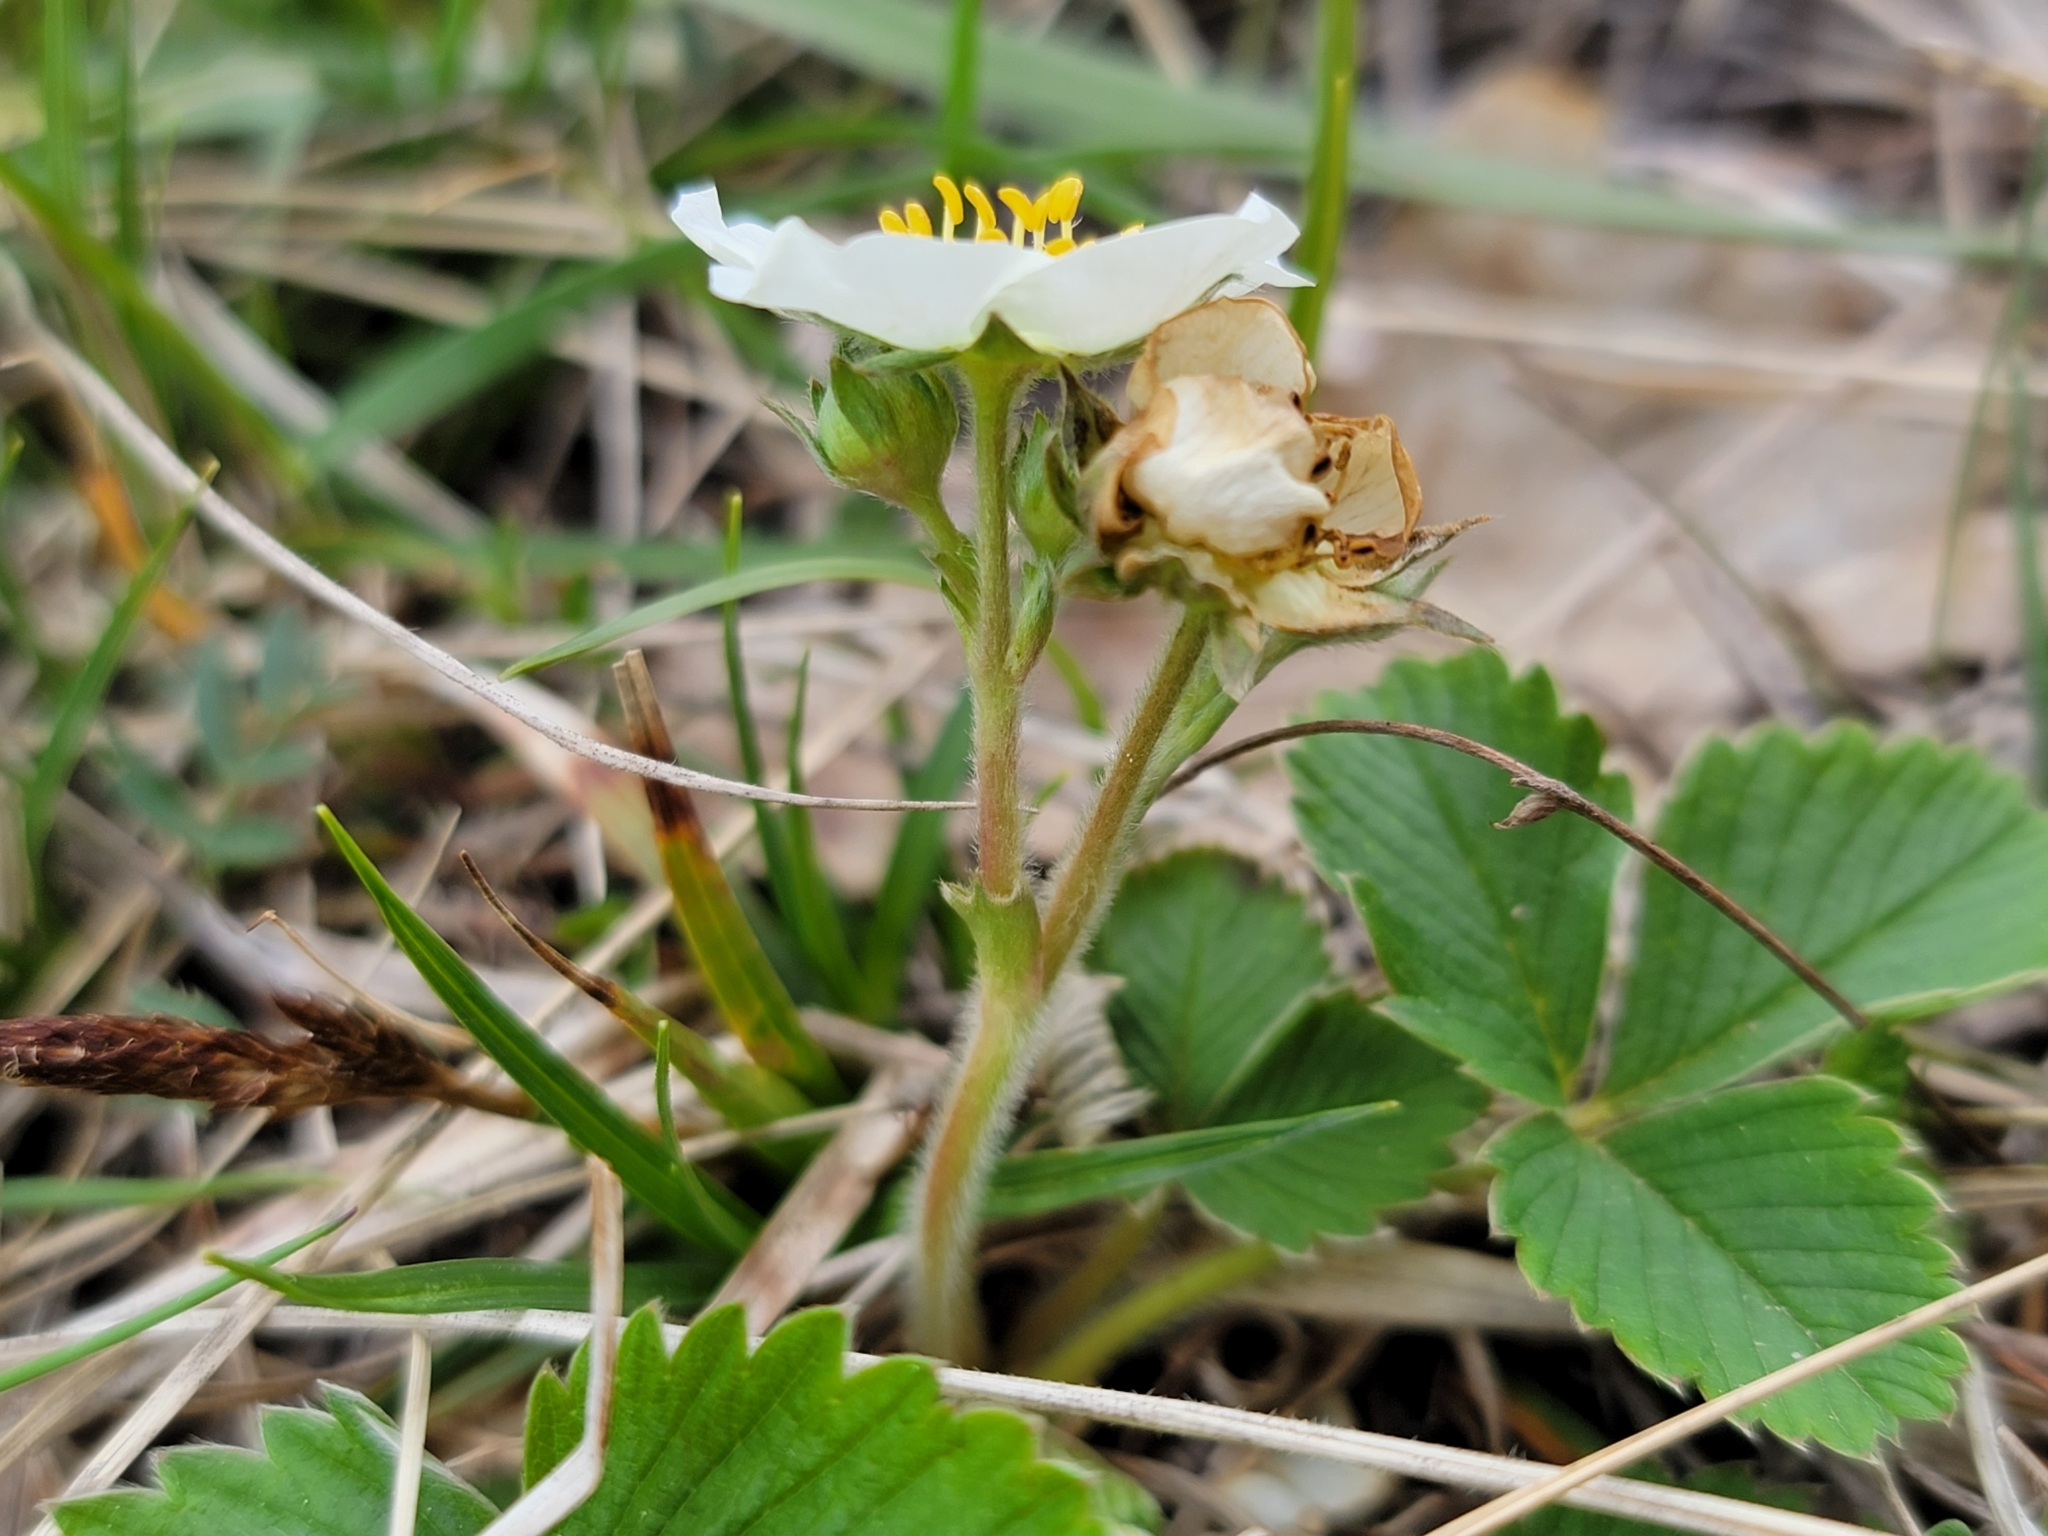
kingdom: Plantae
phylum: Tracheophyta
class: Magnoliopsida
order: Rosales
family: Rosaceae
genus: Fragaria
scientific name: Fragaria viridis
